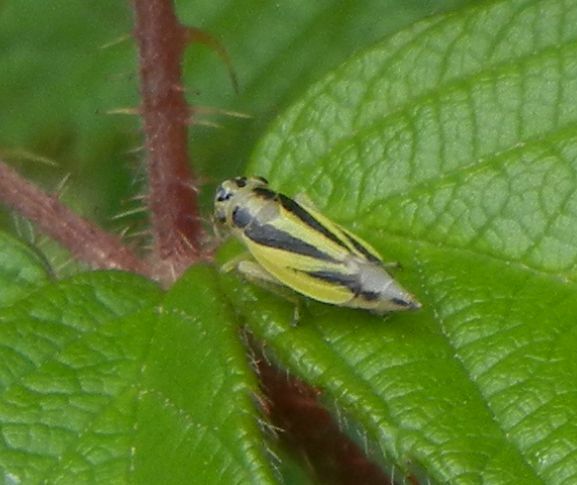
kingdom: Animalia
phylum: Arthropoda
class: Insecta
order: Hemiptera
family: Cicadellidae
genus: Evacanthus
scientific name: Evacanthus interruptus
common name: Leafhopper
